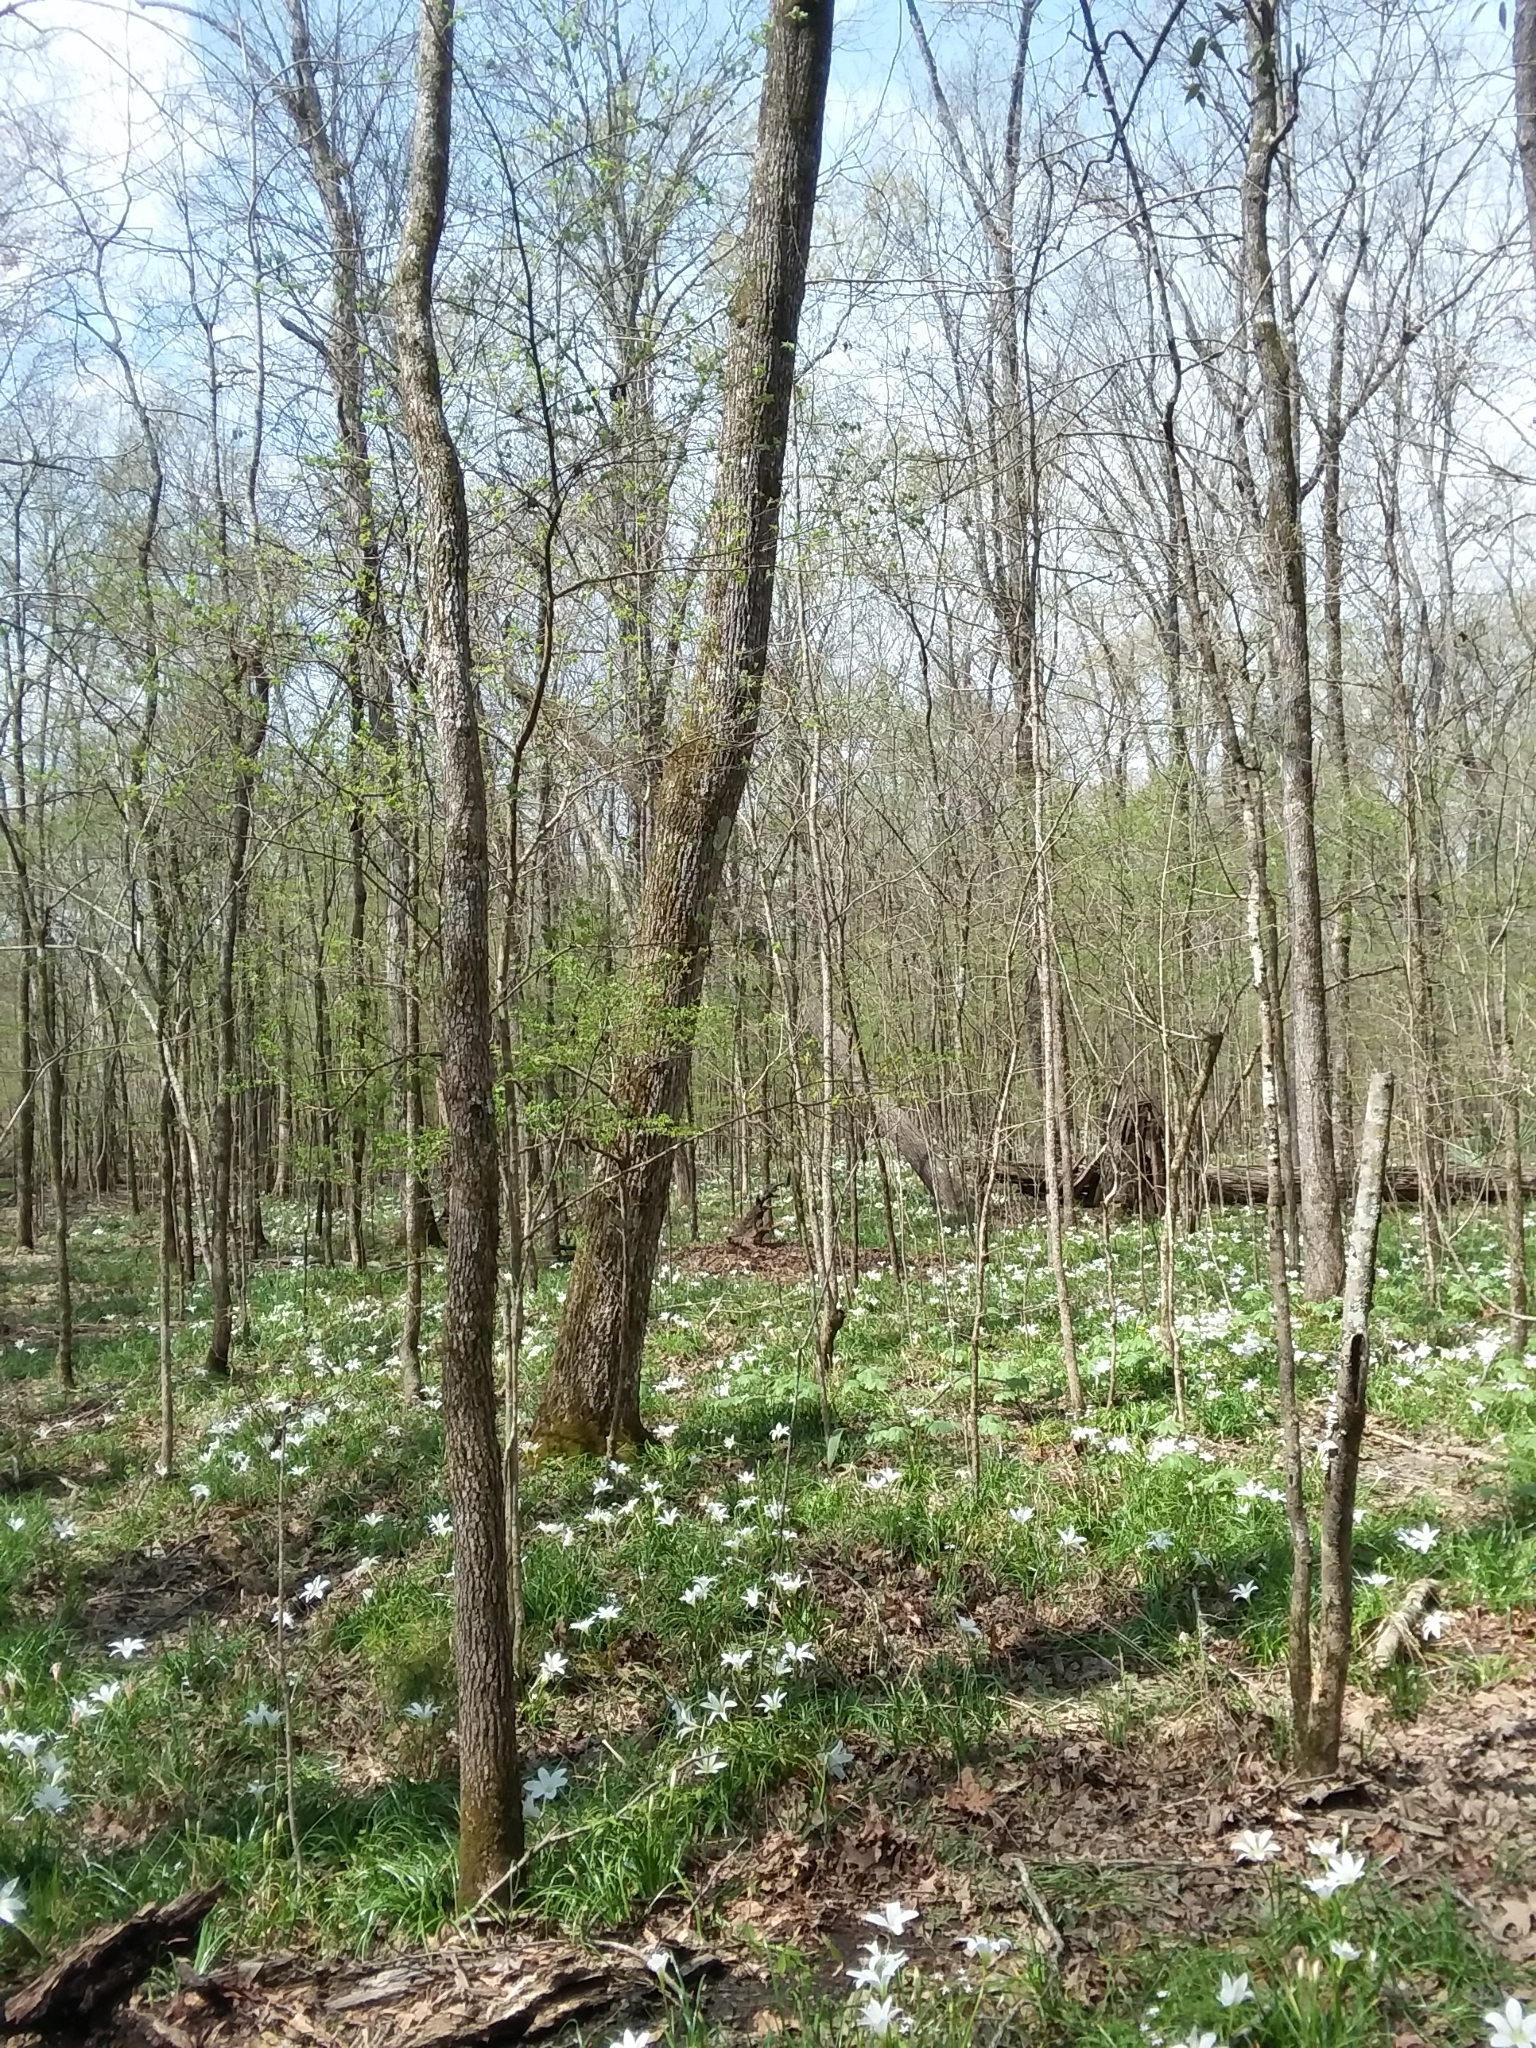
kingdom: Plantae
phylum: Tracheophyta
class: Liliopsida
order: Asparagales
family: Amaryllidaceae
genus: Zephyranthes
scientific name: Zephyranthes atamasco
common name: Atamasco lily
